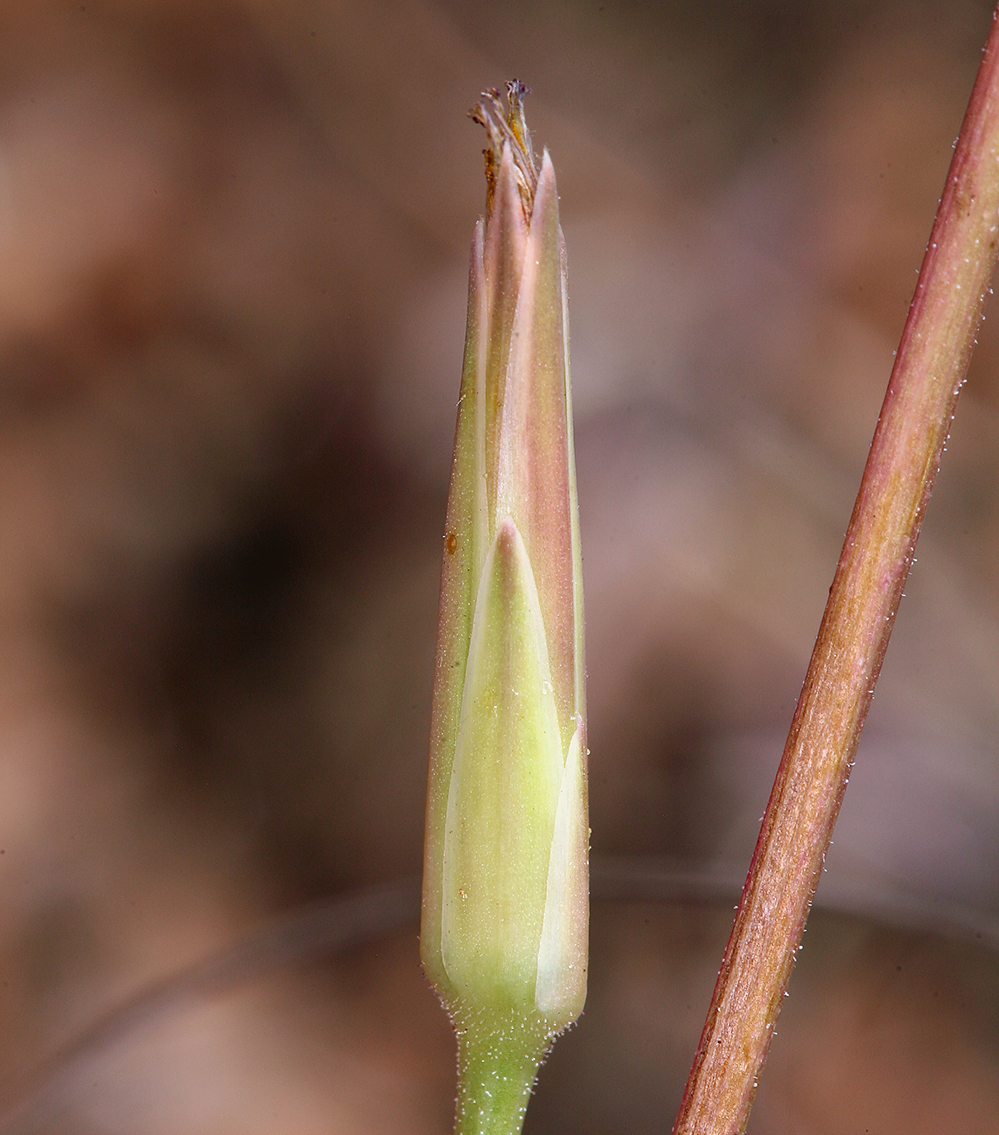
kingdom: Plantae
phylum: Tracheophyta
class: Magnoliopsida
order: Asterales
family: Asteraceae
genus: Microseris
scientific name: Microseris lindleyi
